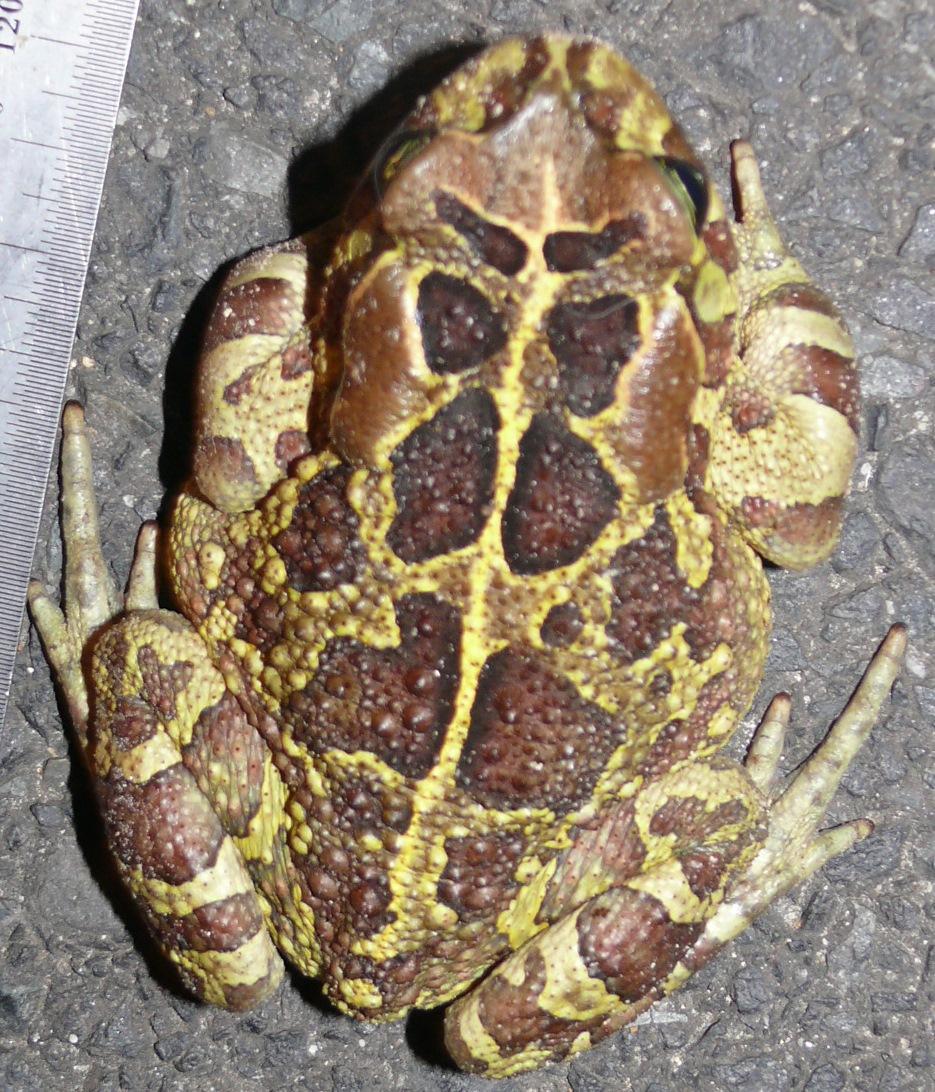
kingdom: Animalia
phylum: Chordata
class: Amphibia
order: Anura
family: Bufonidae
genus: Sclerophrys
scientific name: Sclerophrys pantherina
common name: Panther toad
